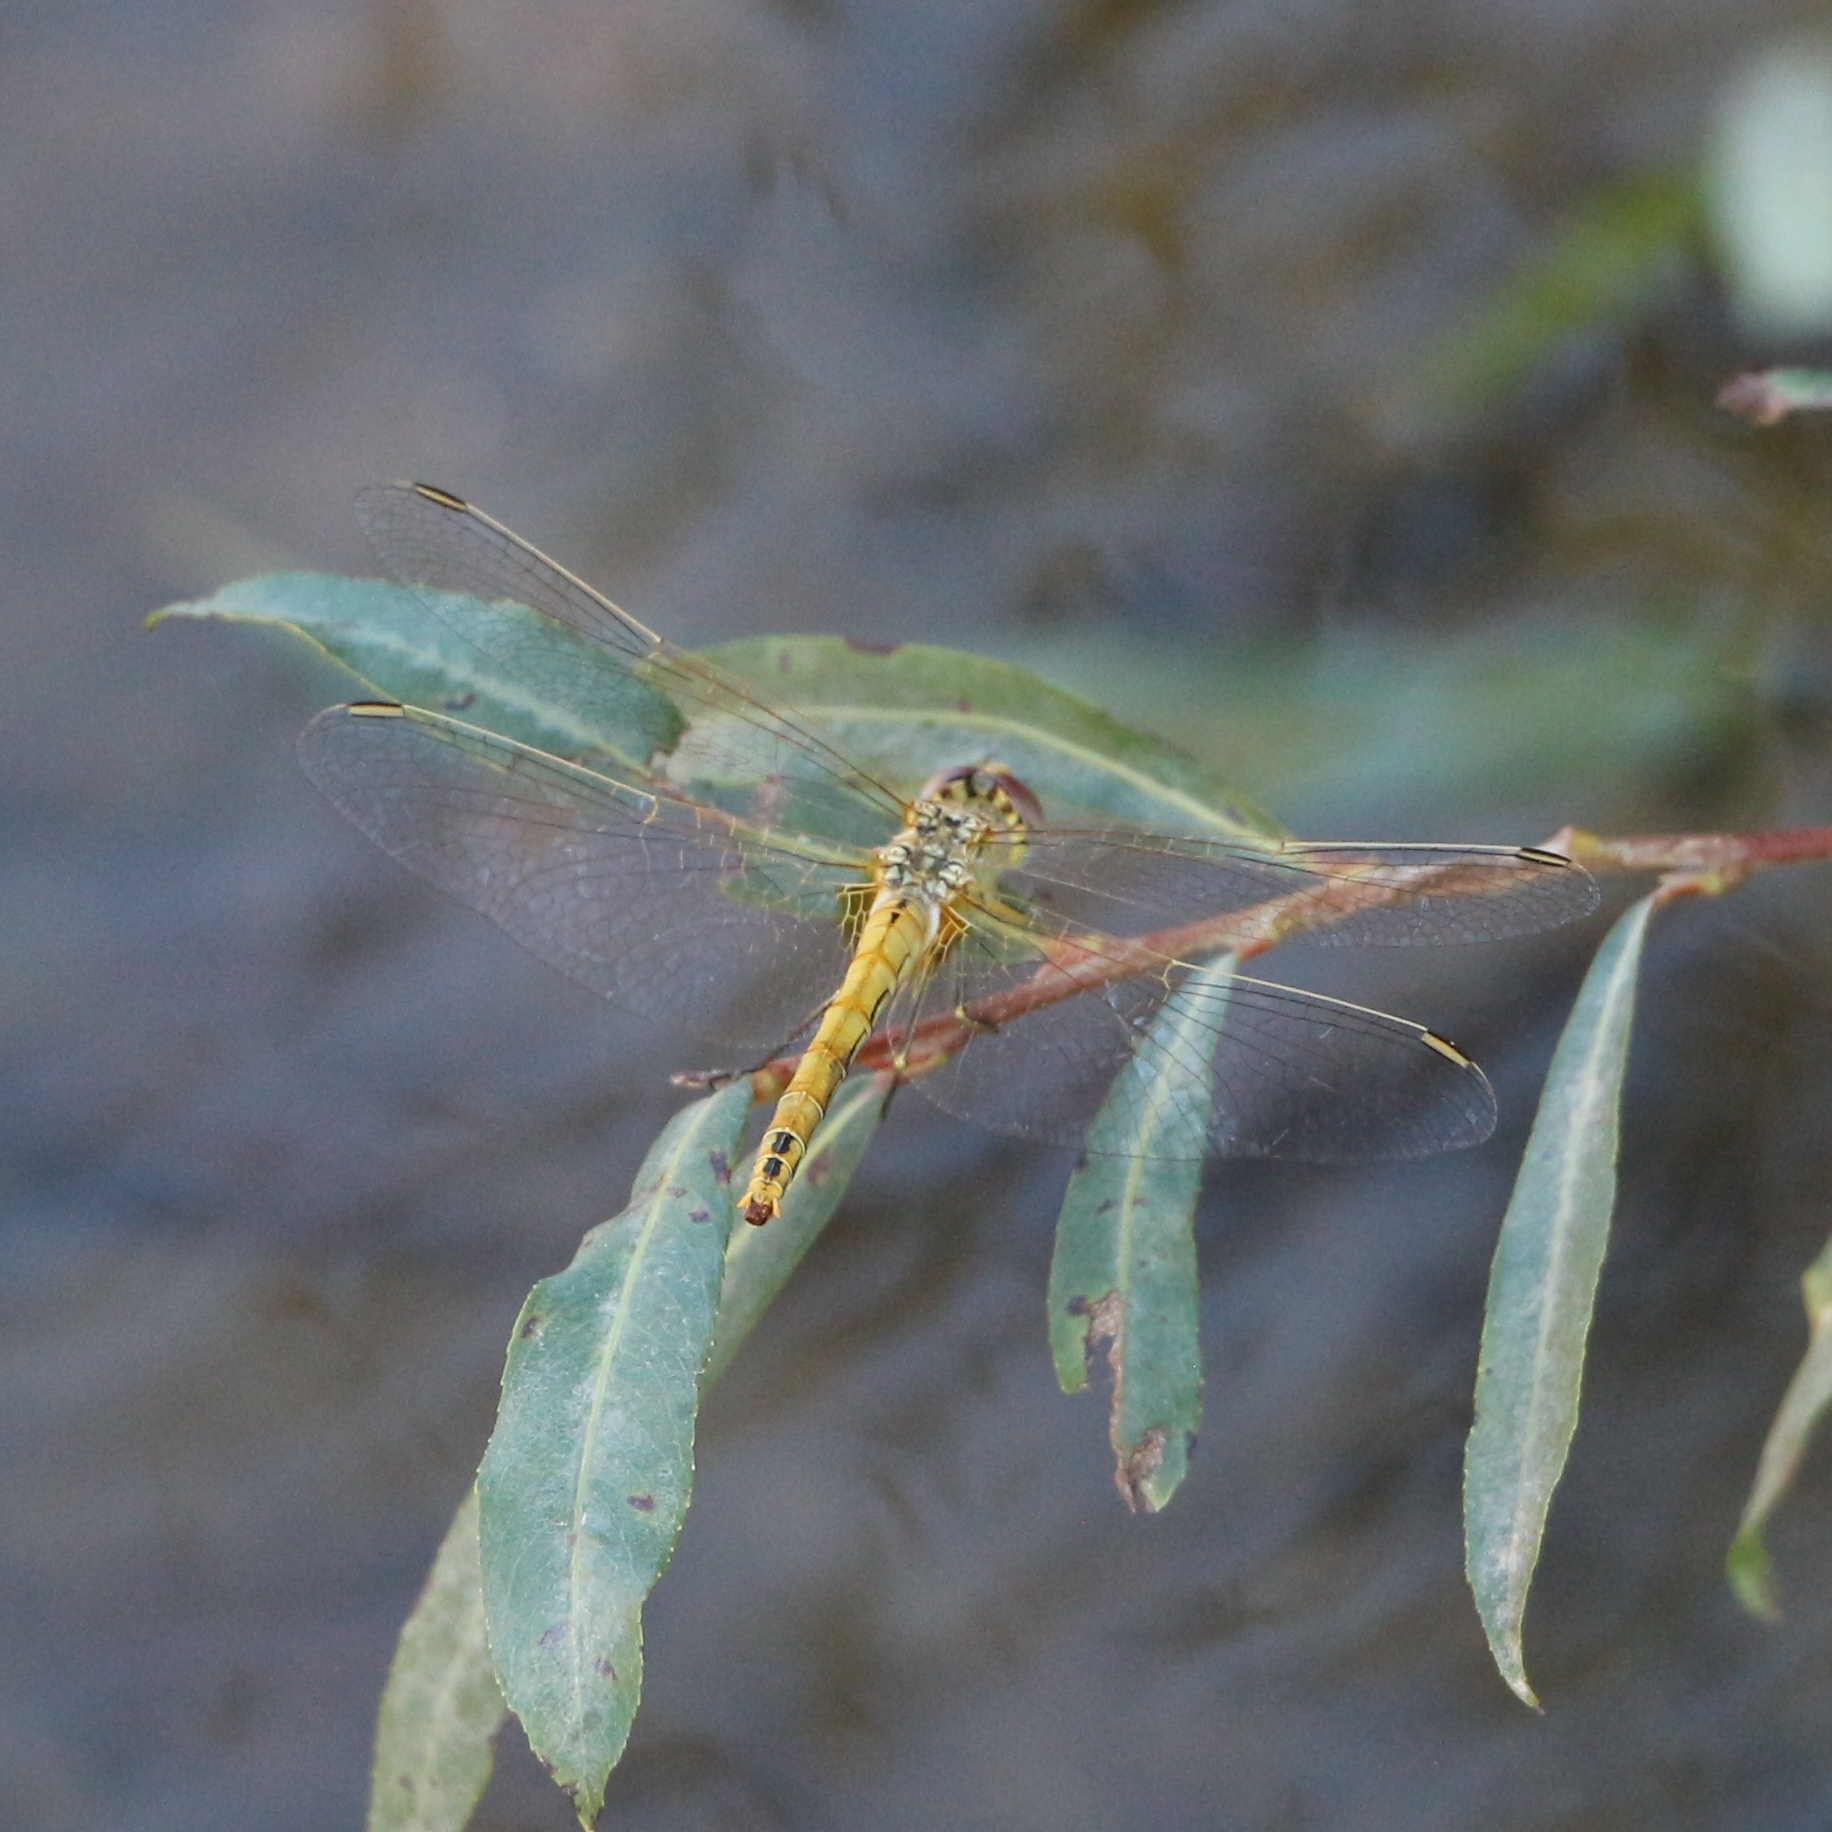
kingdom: Animalia
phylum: Arthropoda
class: Insecta
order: Odonata
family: Libellulidae
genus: Sympetrum
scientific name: Sympetrum fonscolombii
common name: Red-veined darter
